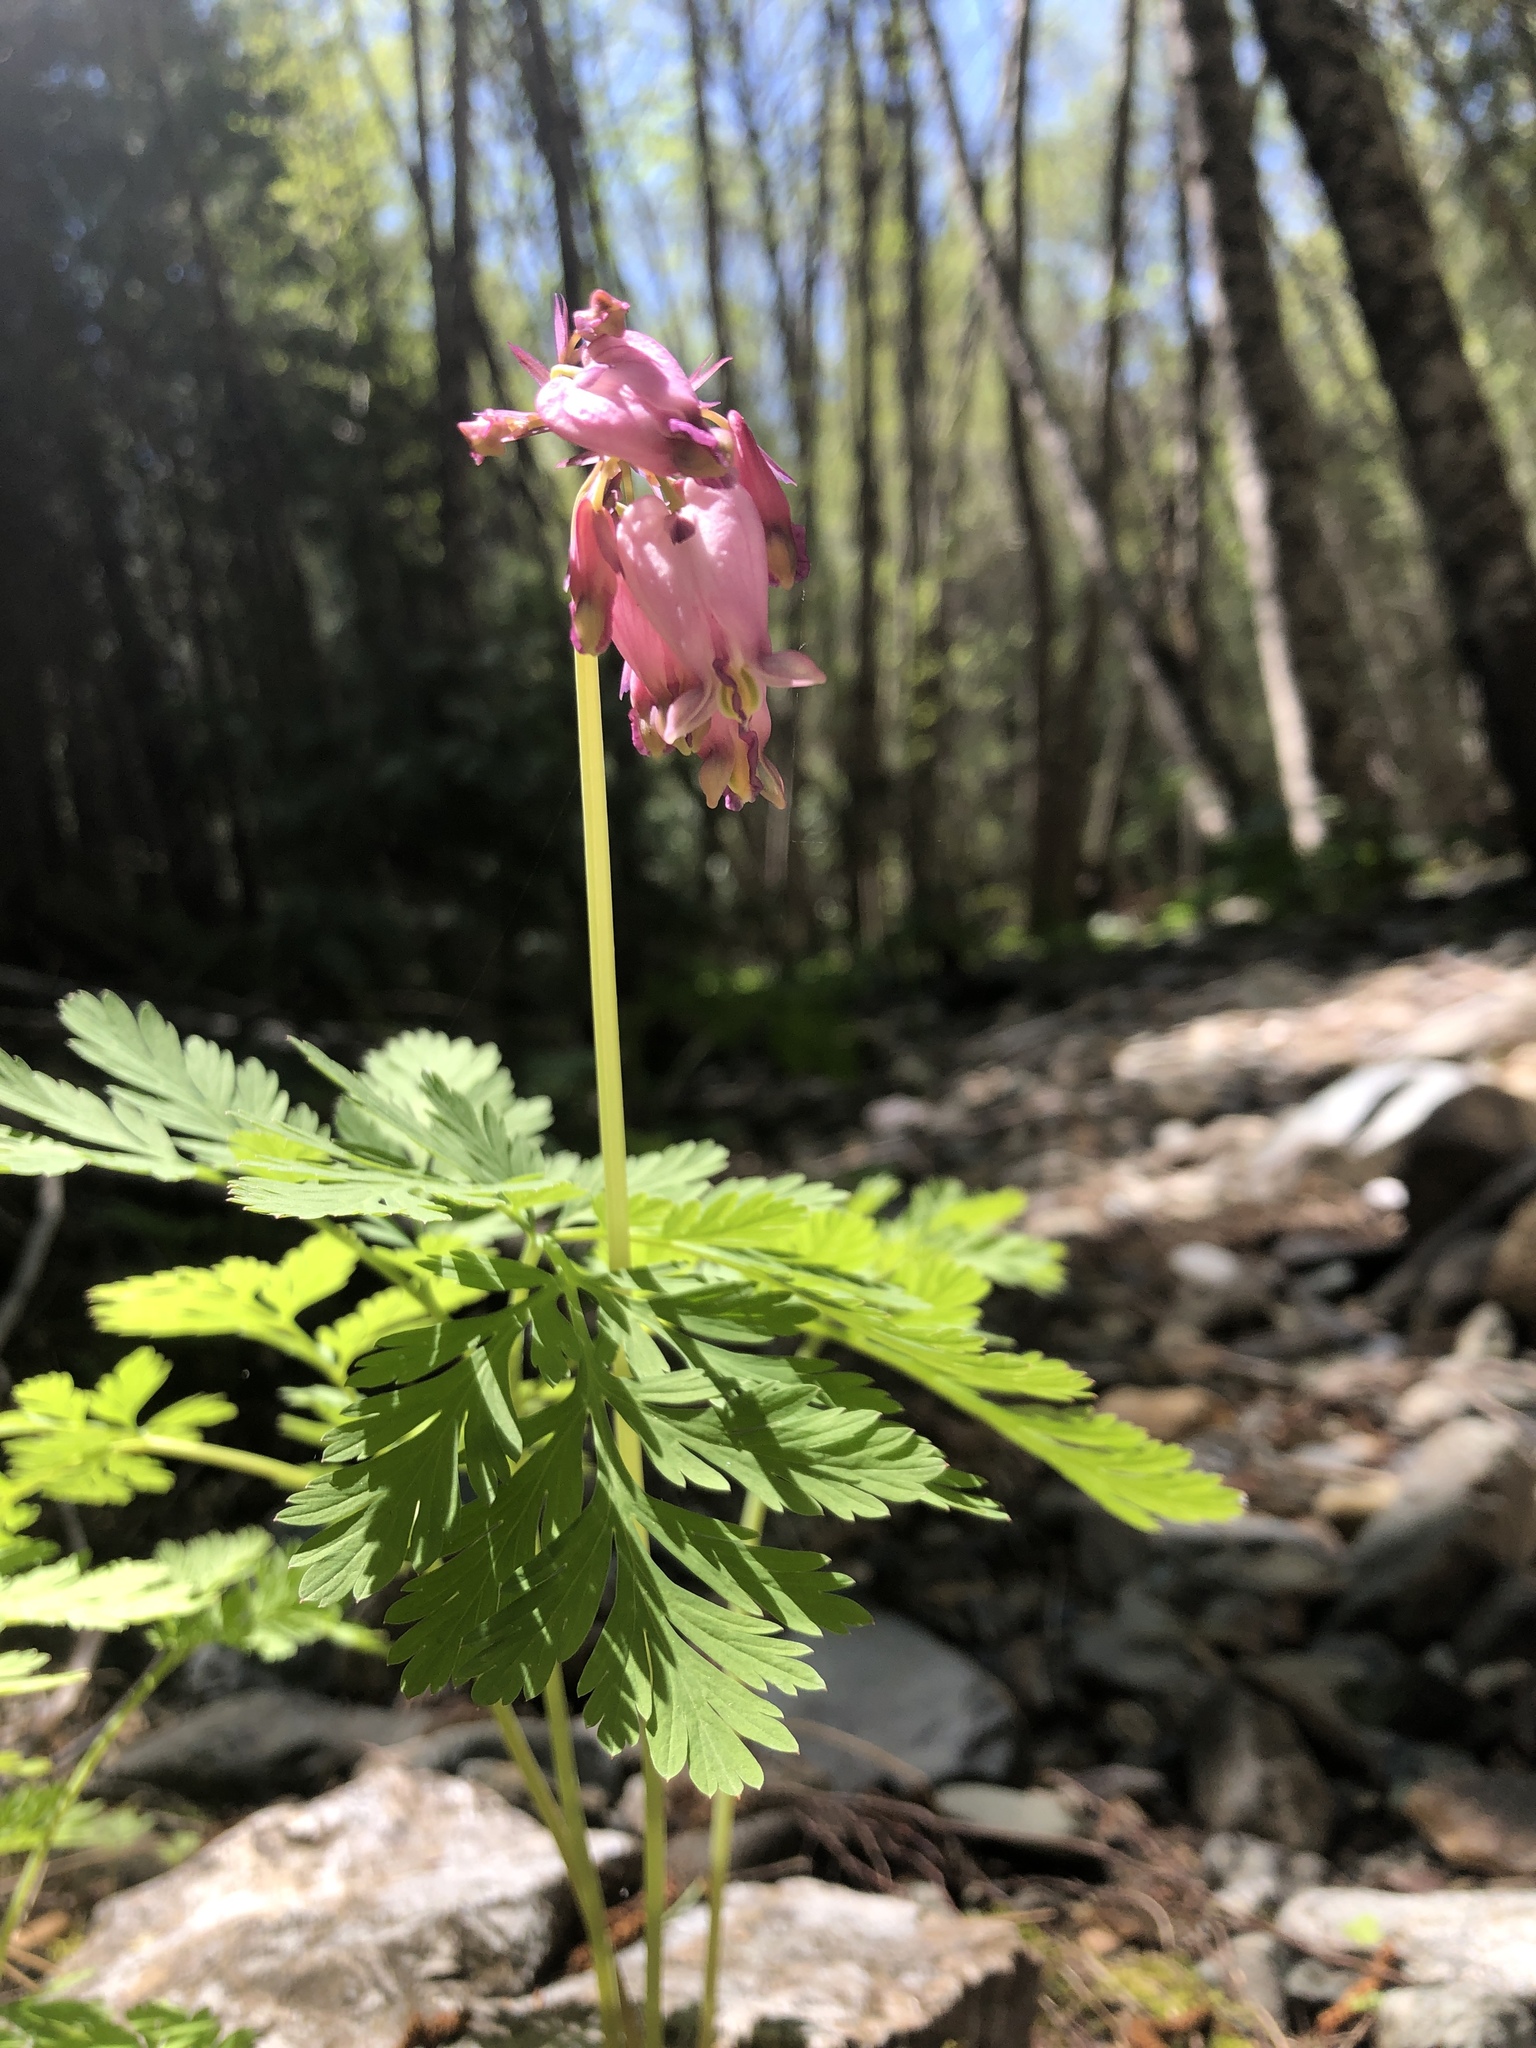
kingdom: Plantae
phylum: Tracheophyta
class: Magnoliopsida
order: Ranunculales
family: Papaveraceae
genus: Dicentra
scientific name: Dicentra formosa
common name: Bleeding-heart
